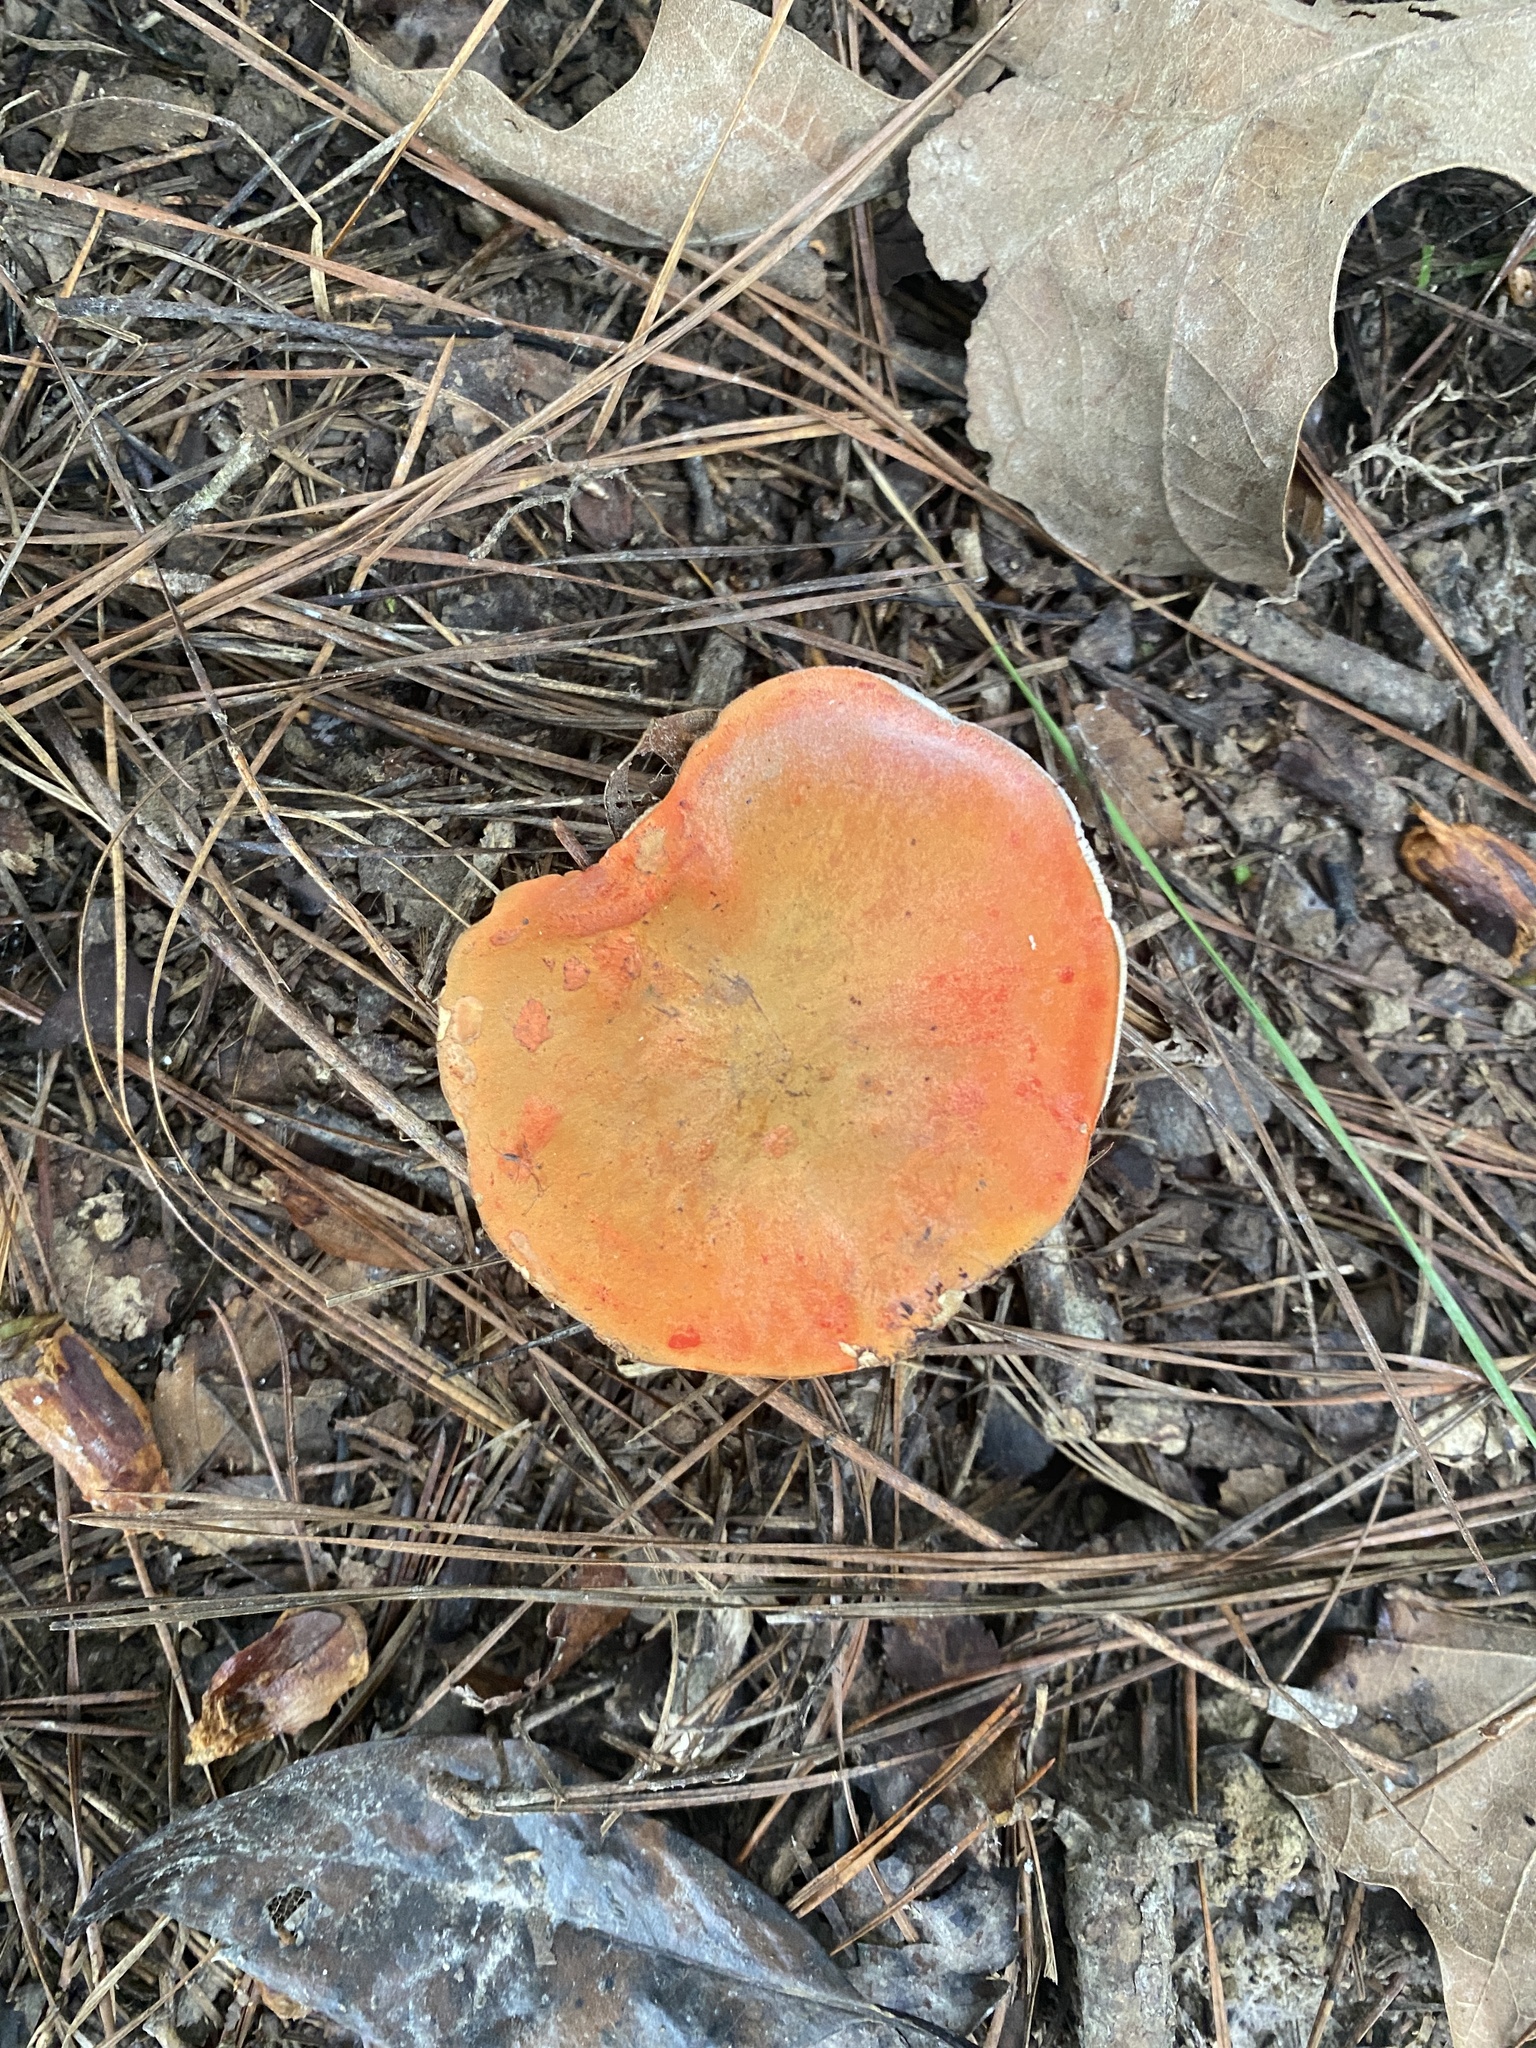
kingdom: Fungi
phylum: Basidiomycota
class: Agaricomycetes
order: Boletales
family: Boletaceae
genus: Tylopilus
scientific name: Tylopilus balloui
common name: Burnt-orange bolete
